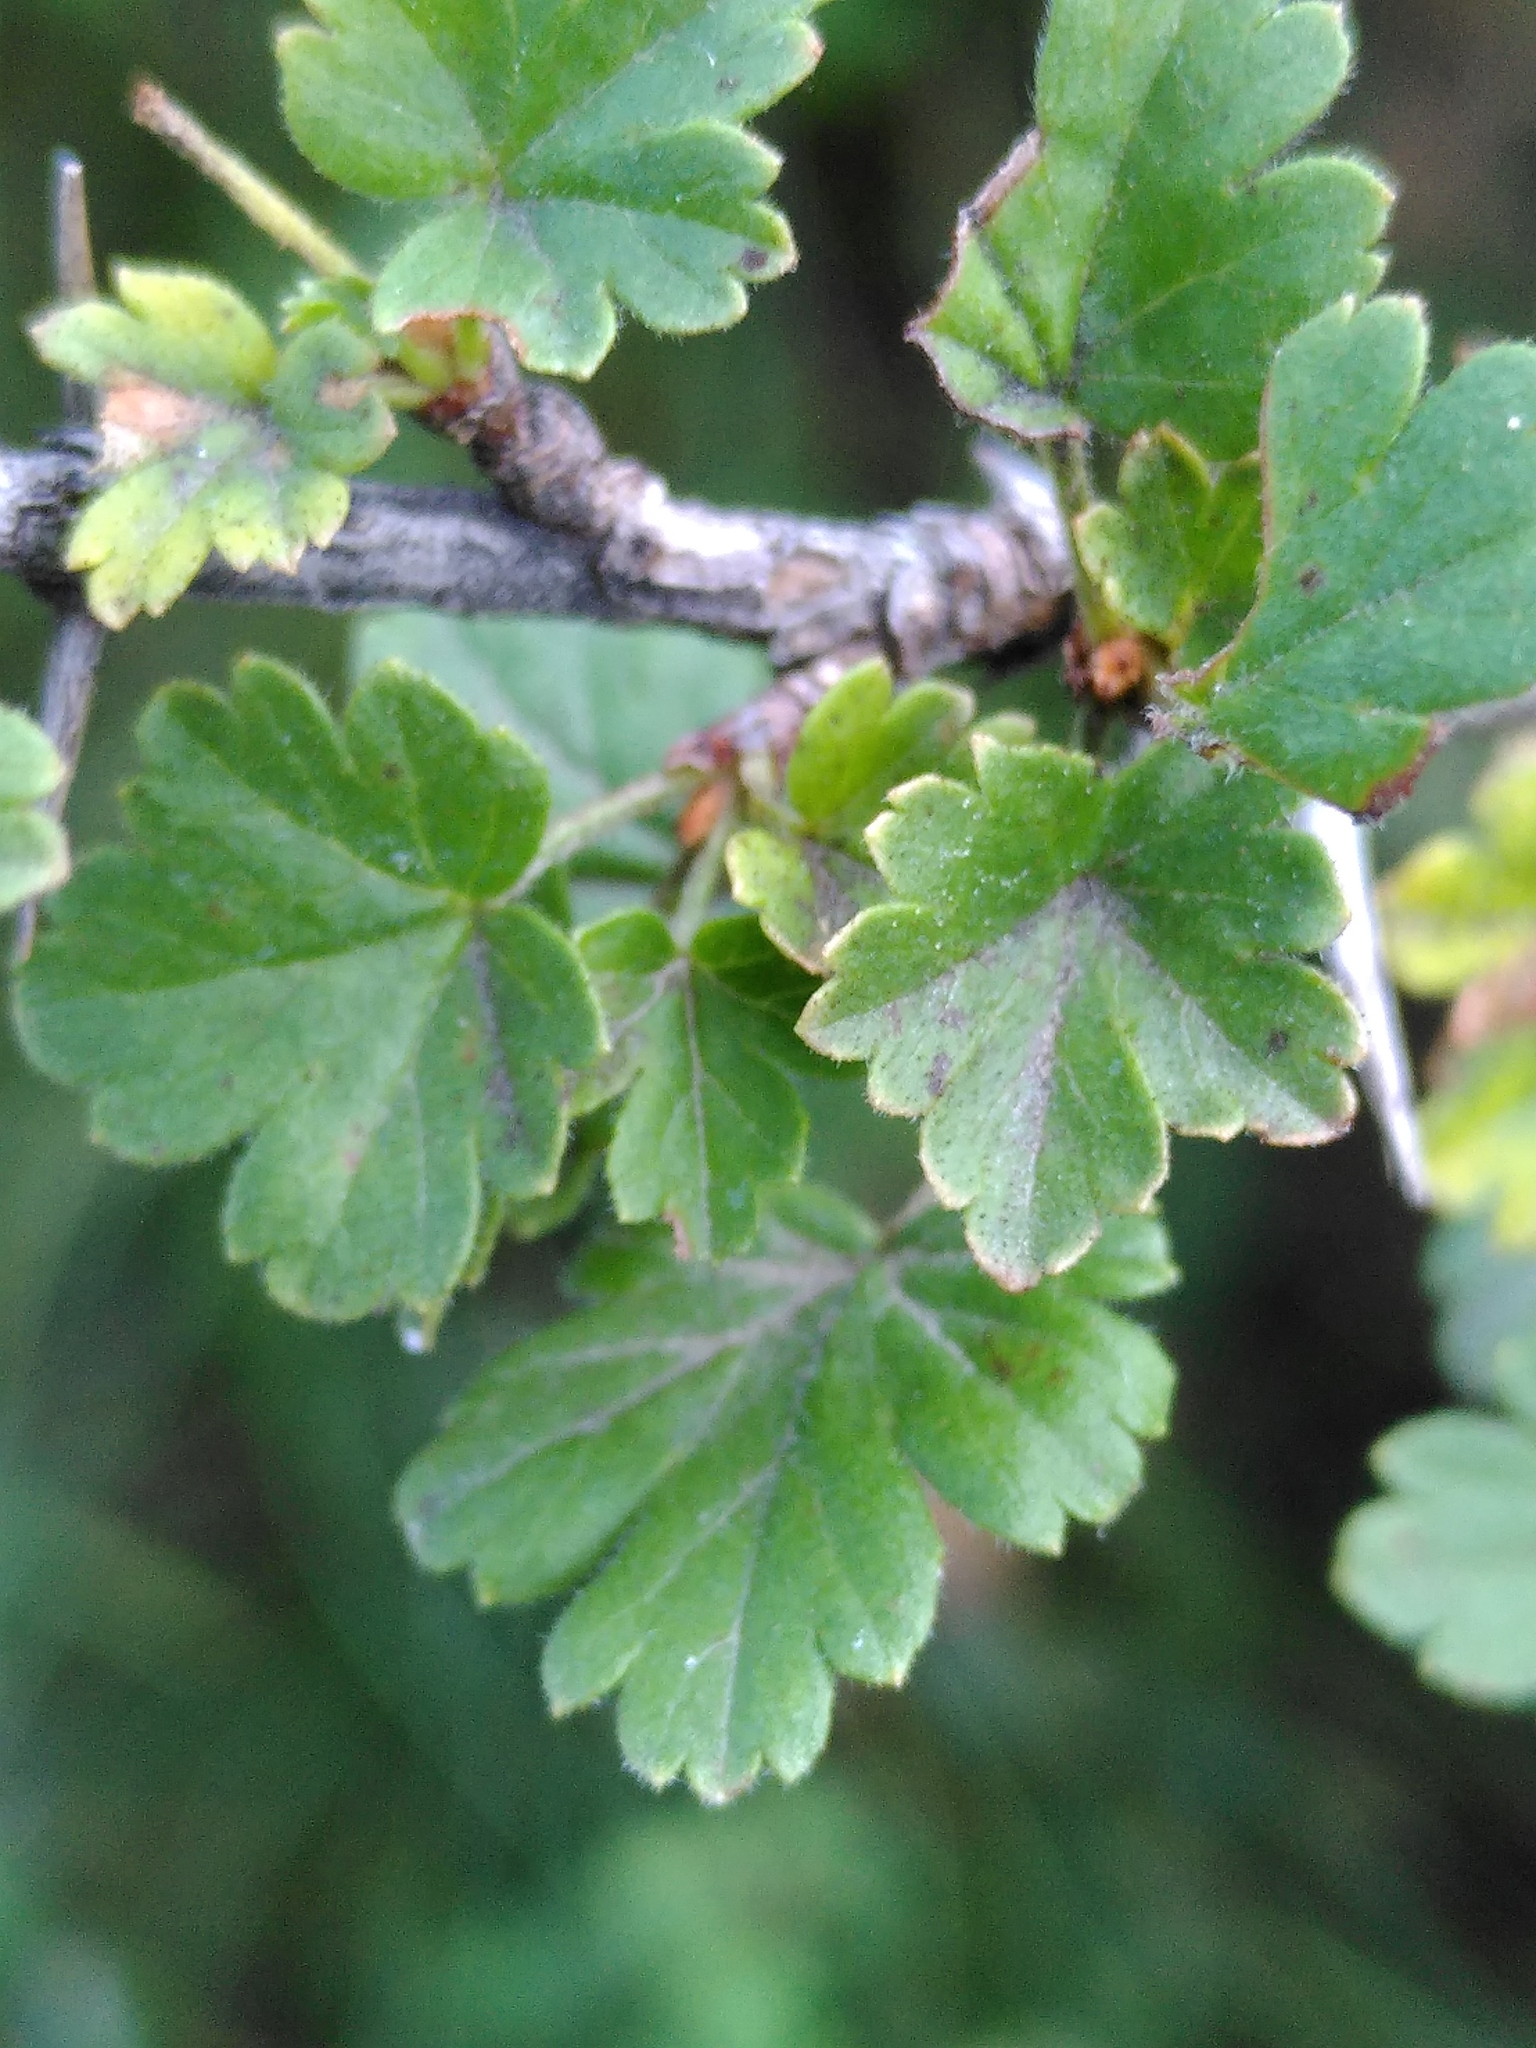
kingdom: Plantae
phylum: Tracheophyta
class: Magnoliopsida
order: Saxifragales
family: Grossulariaceae
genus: Ribes
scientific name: Ribes uva-crispa
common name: Gooseberry
